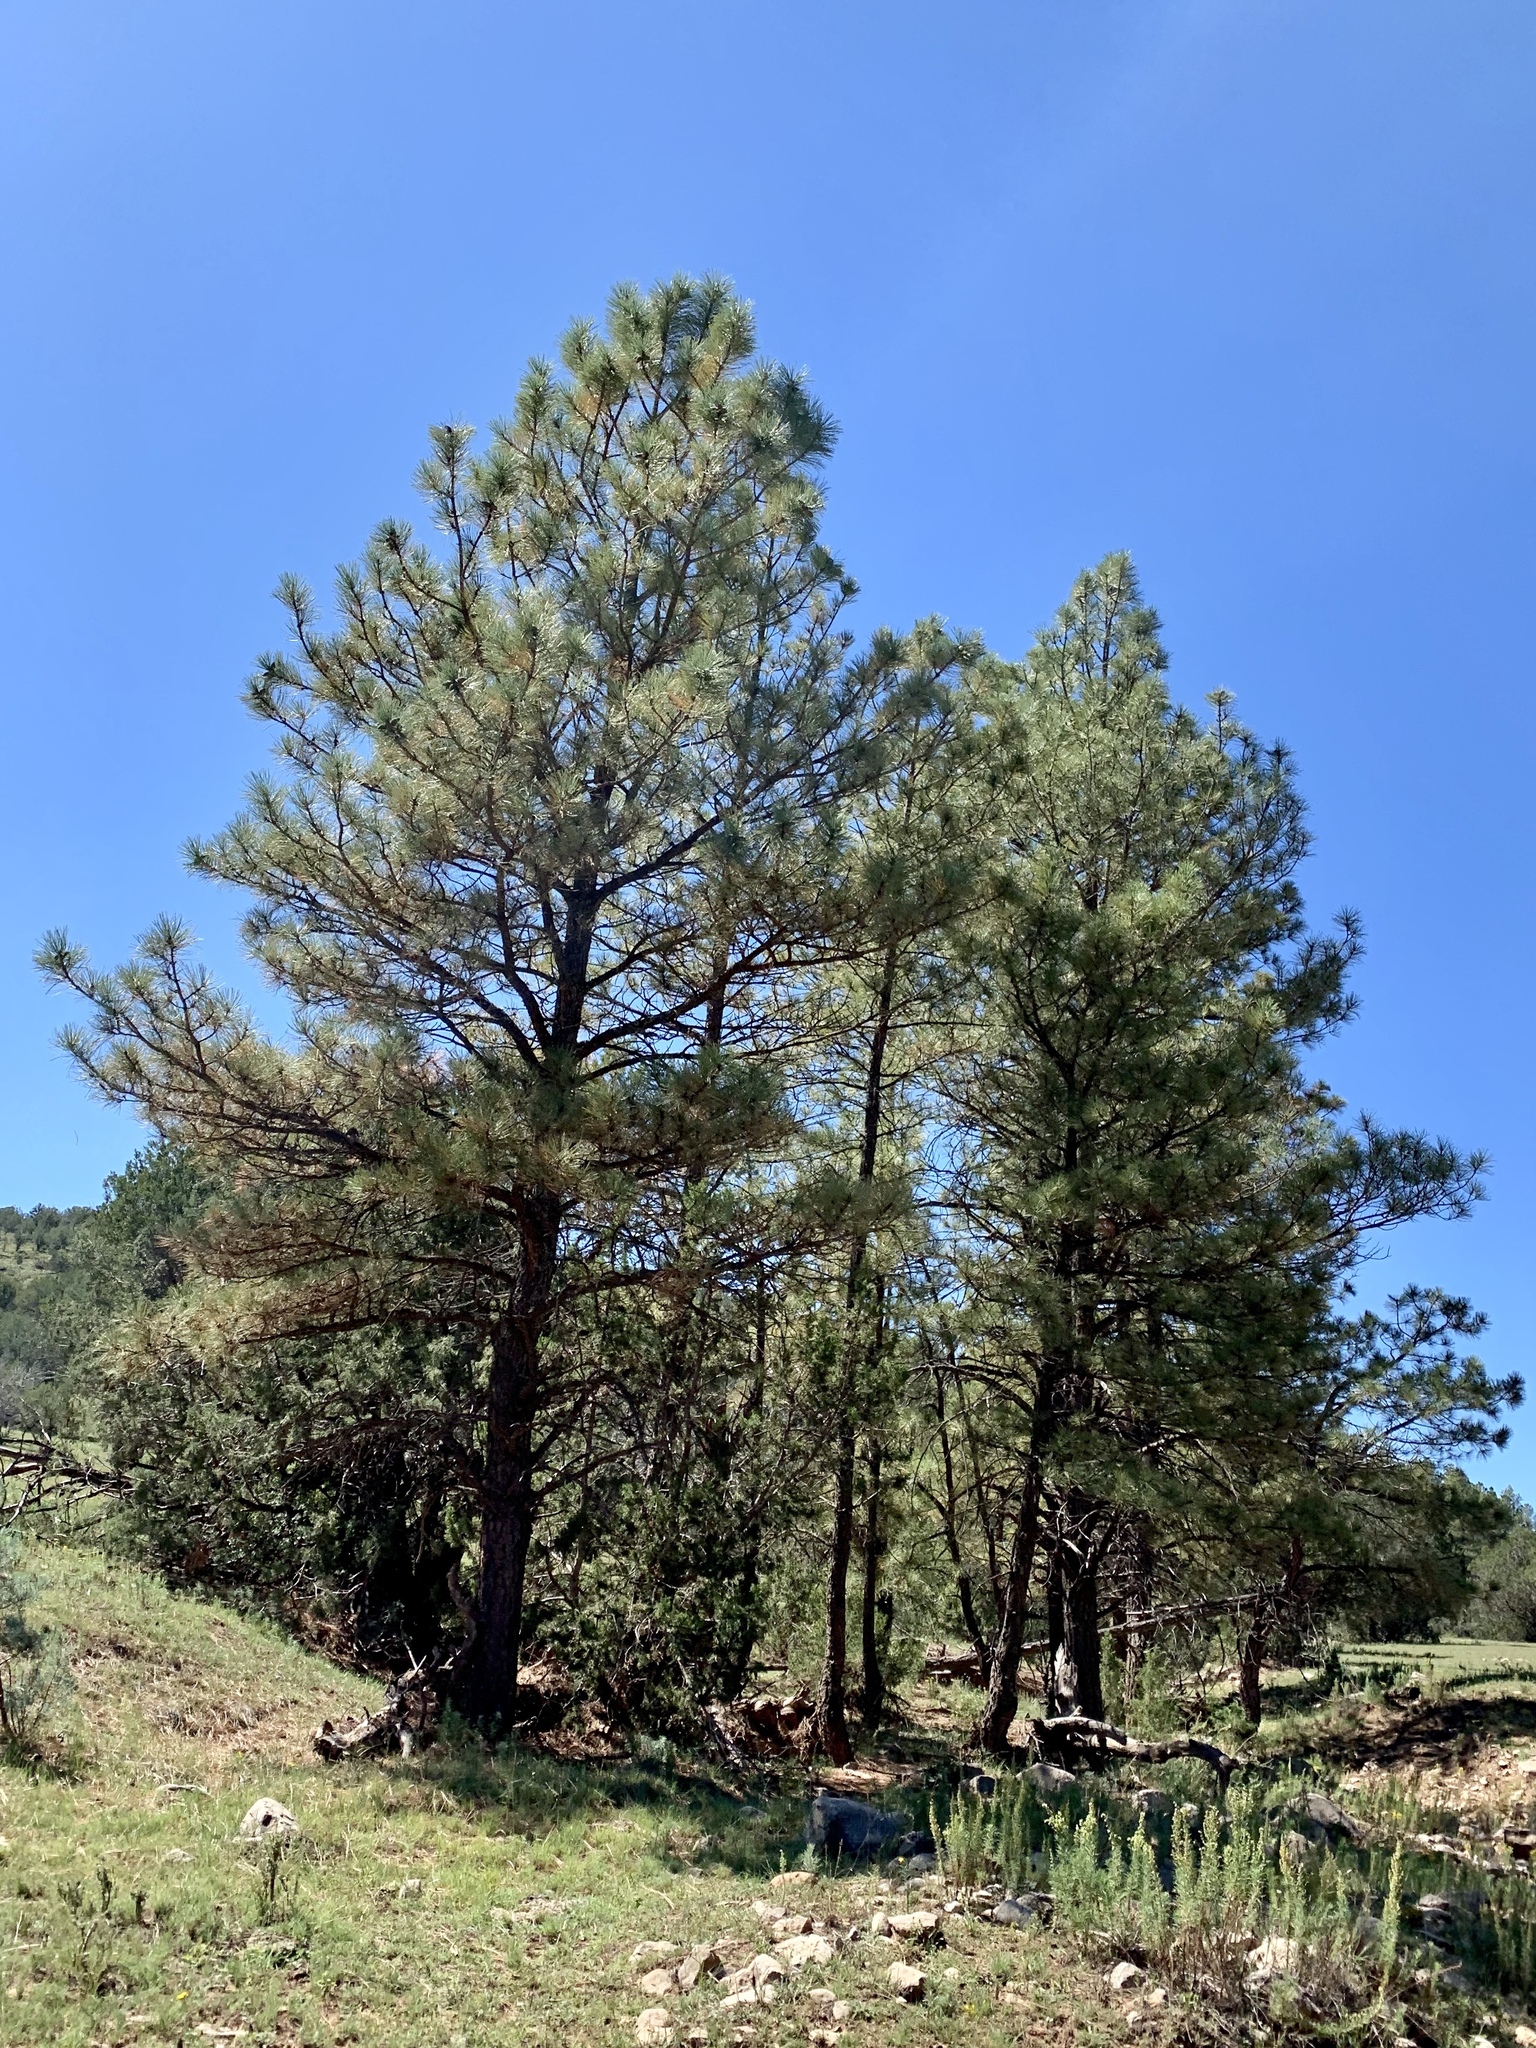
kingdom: Plantae
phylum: Tracheophyta
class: Pinopsida
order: Pinales
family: Pinaceae
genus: Pinus
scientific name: Pinus ponderosa
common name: Western yellow-pine
